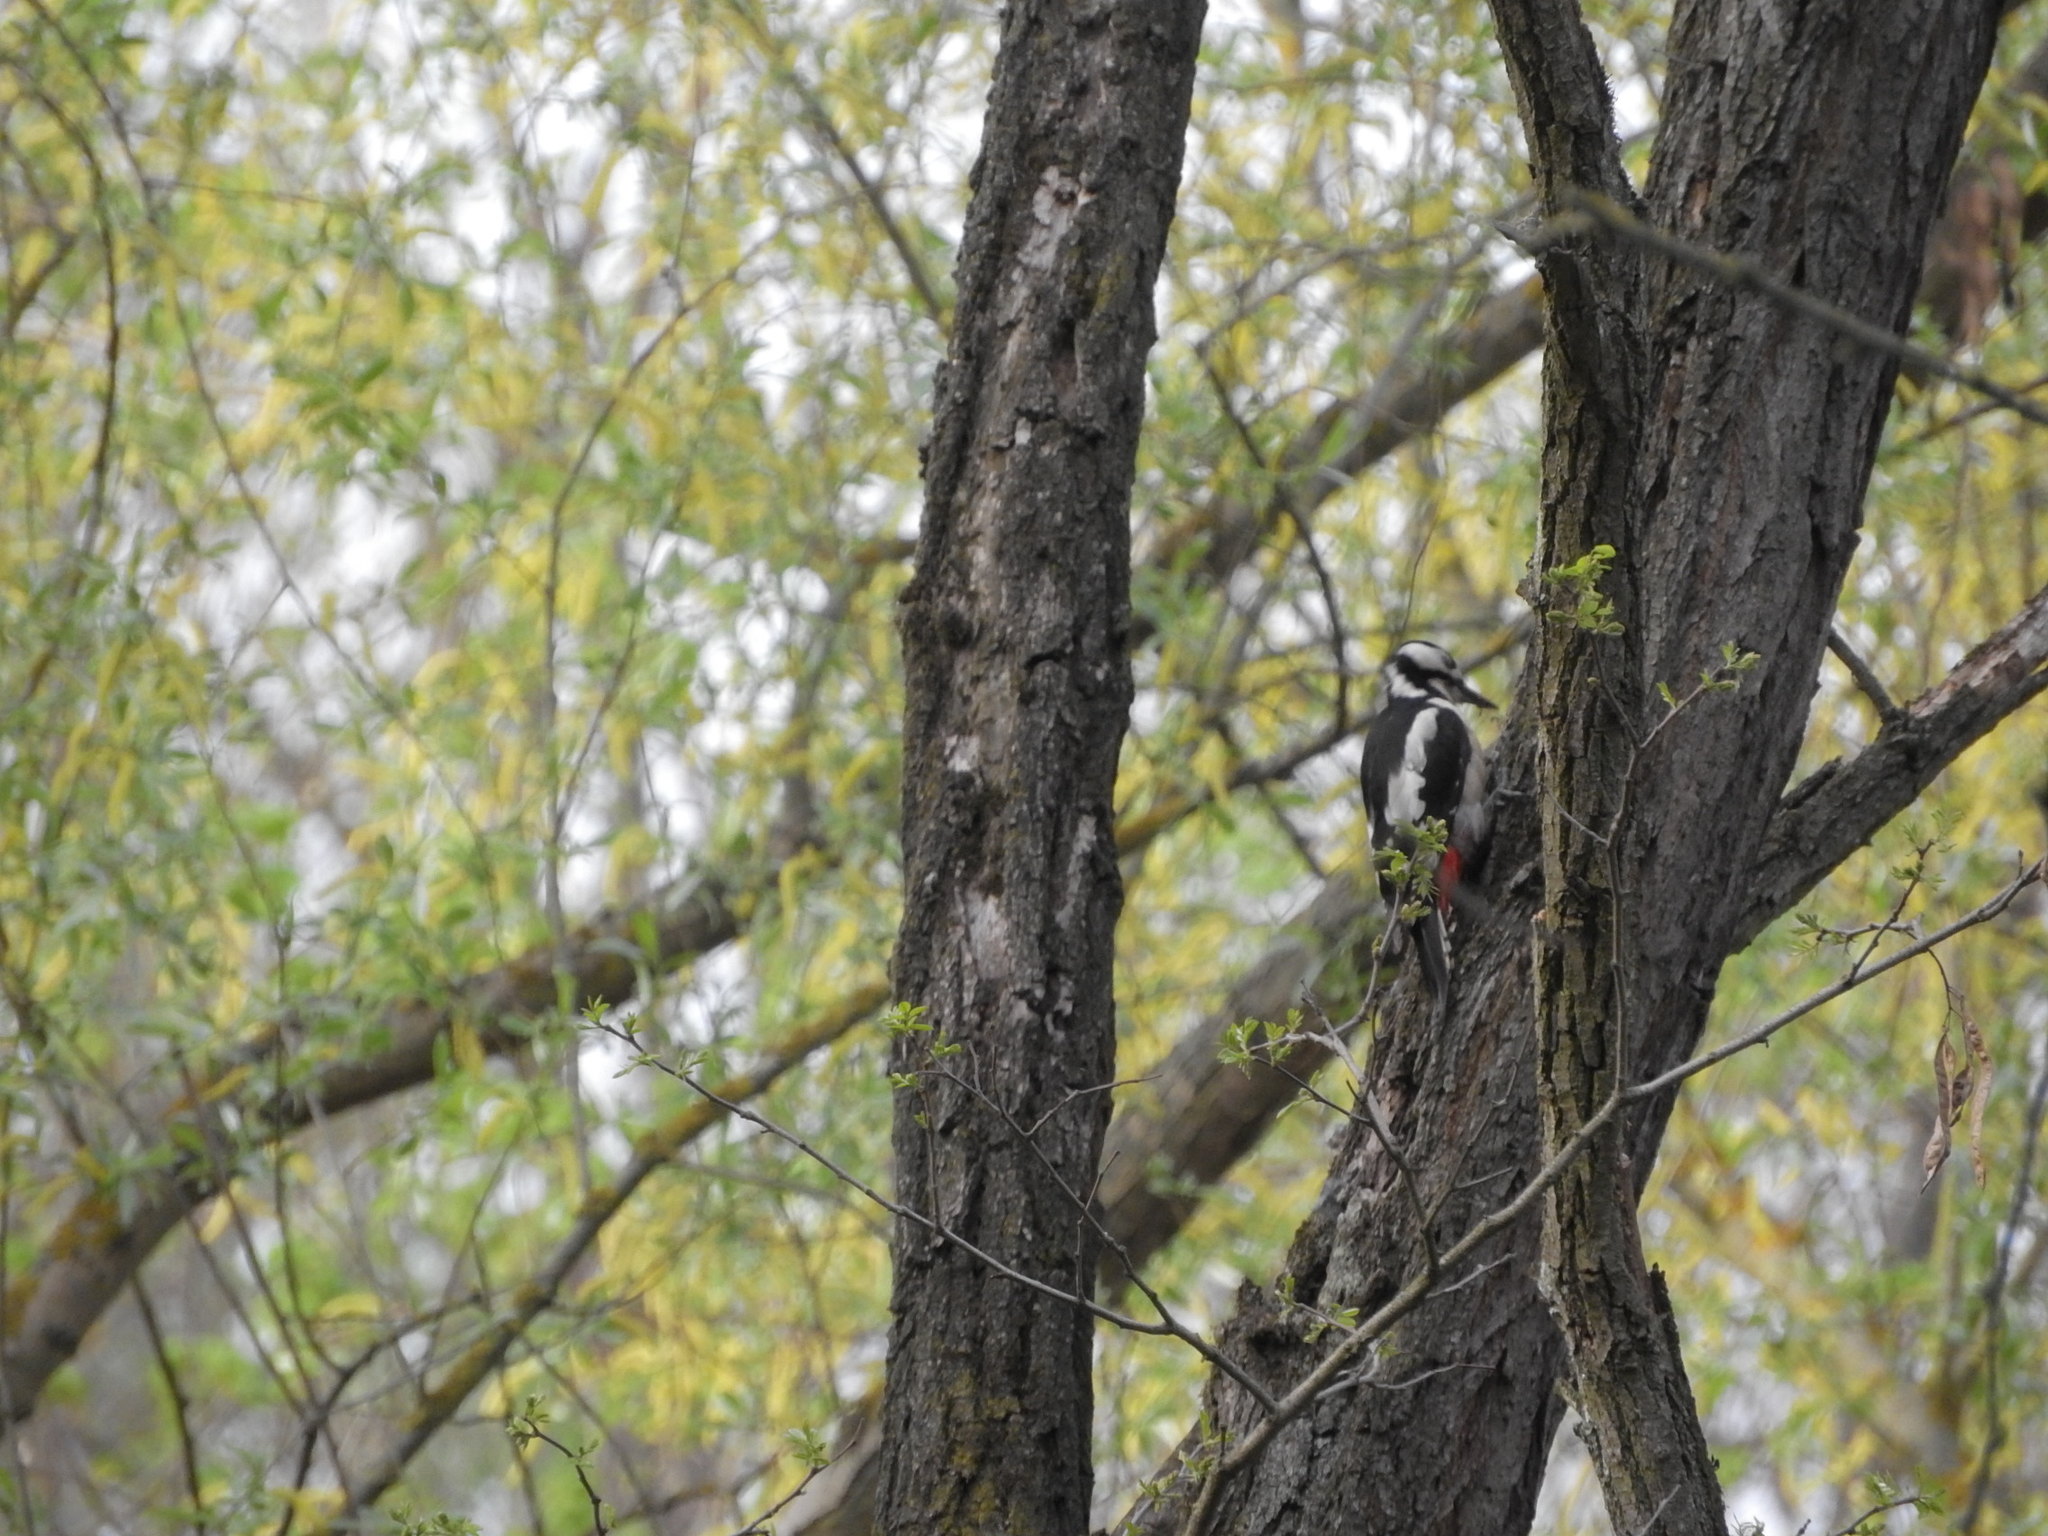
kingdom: Animalia
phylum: Chordata
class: Aves
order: Piciformes
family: Picidae
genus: Dendrocopos
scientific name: Dendrocopos major
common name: Great spotted woodpecker
